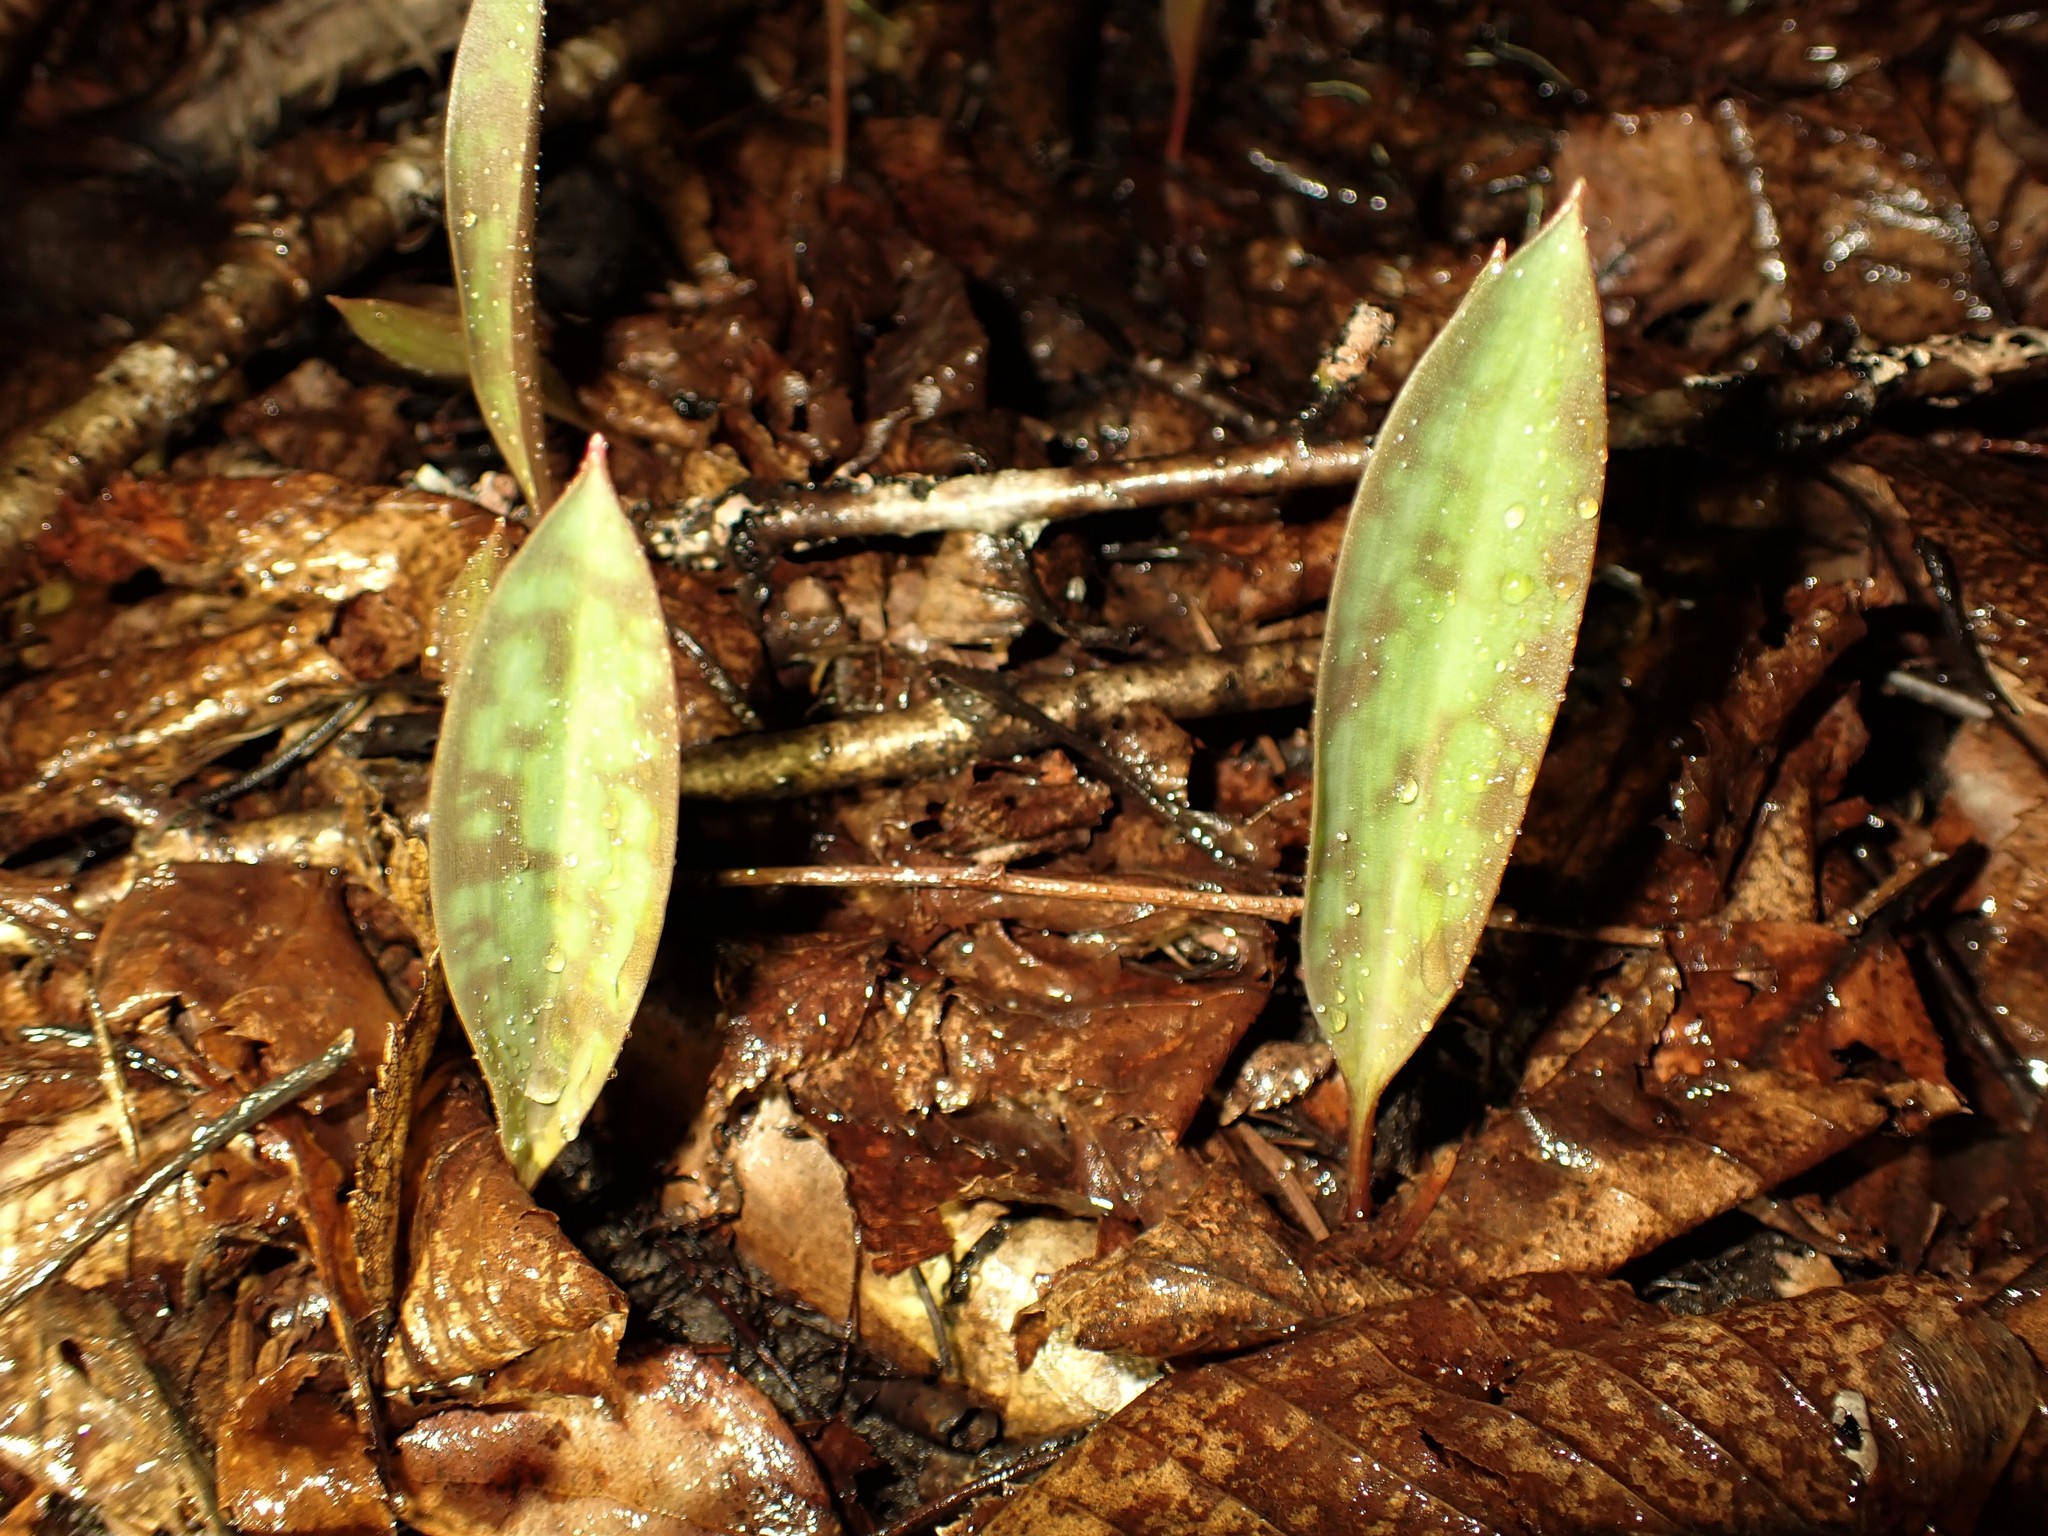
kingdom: Plantae
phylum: Tracheophyta
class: Liliopsida
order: Liliales
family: Liliaceae
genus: Erythronium
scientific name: Erythronium americanum
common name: Yellow adder's-tongue
